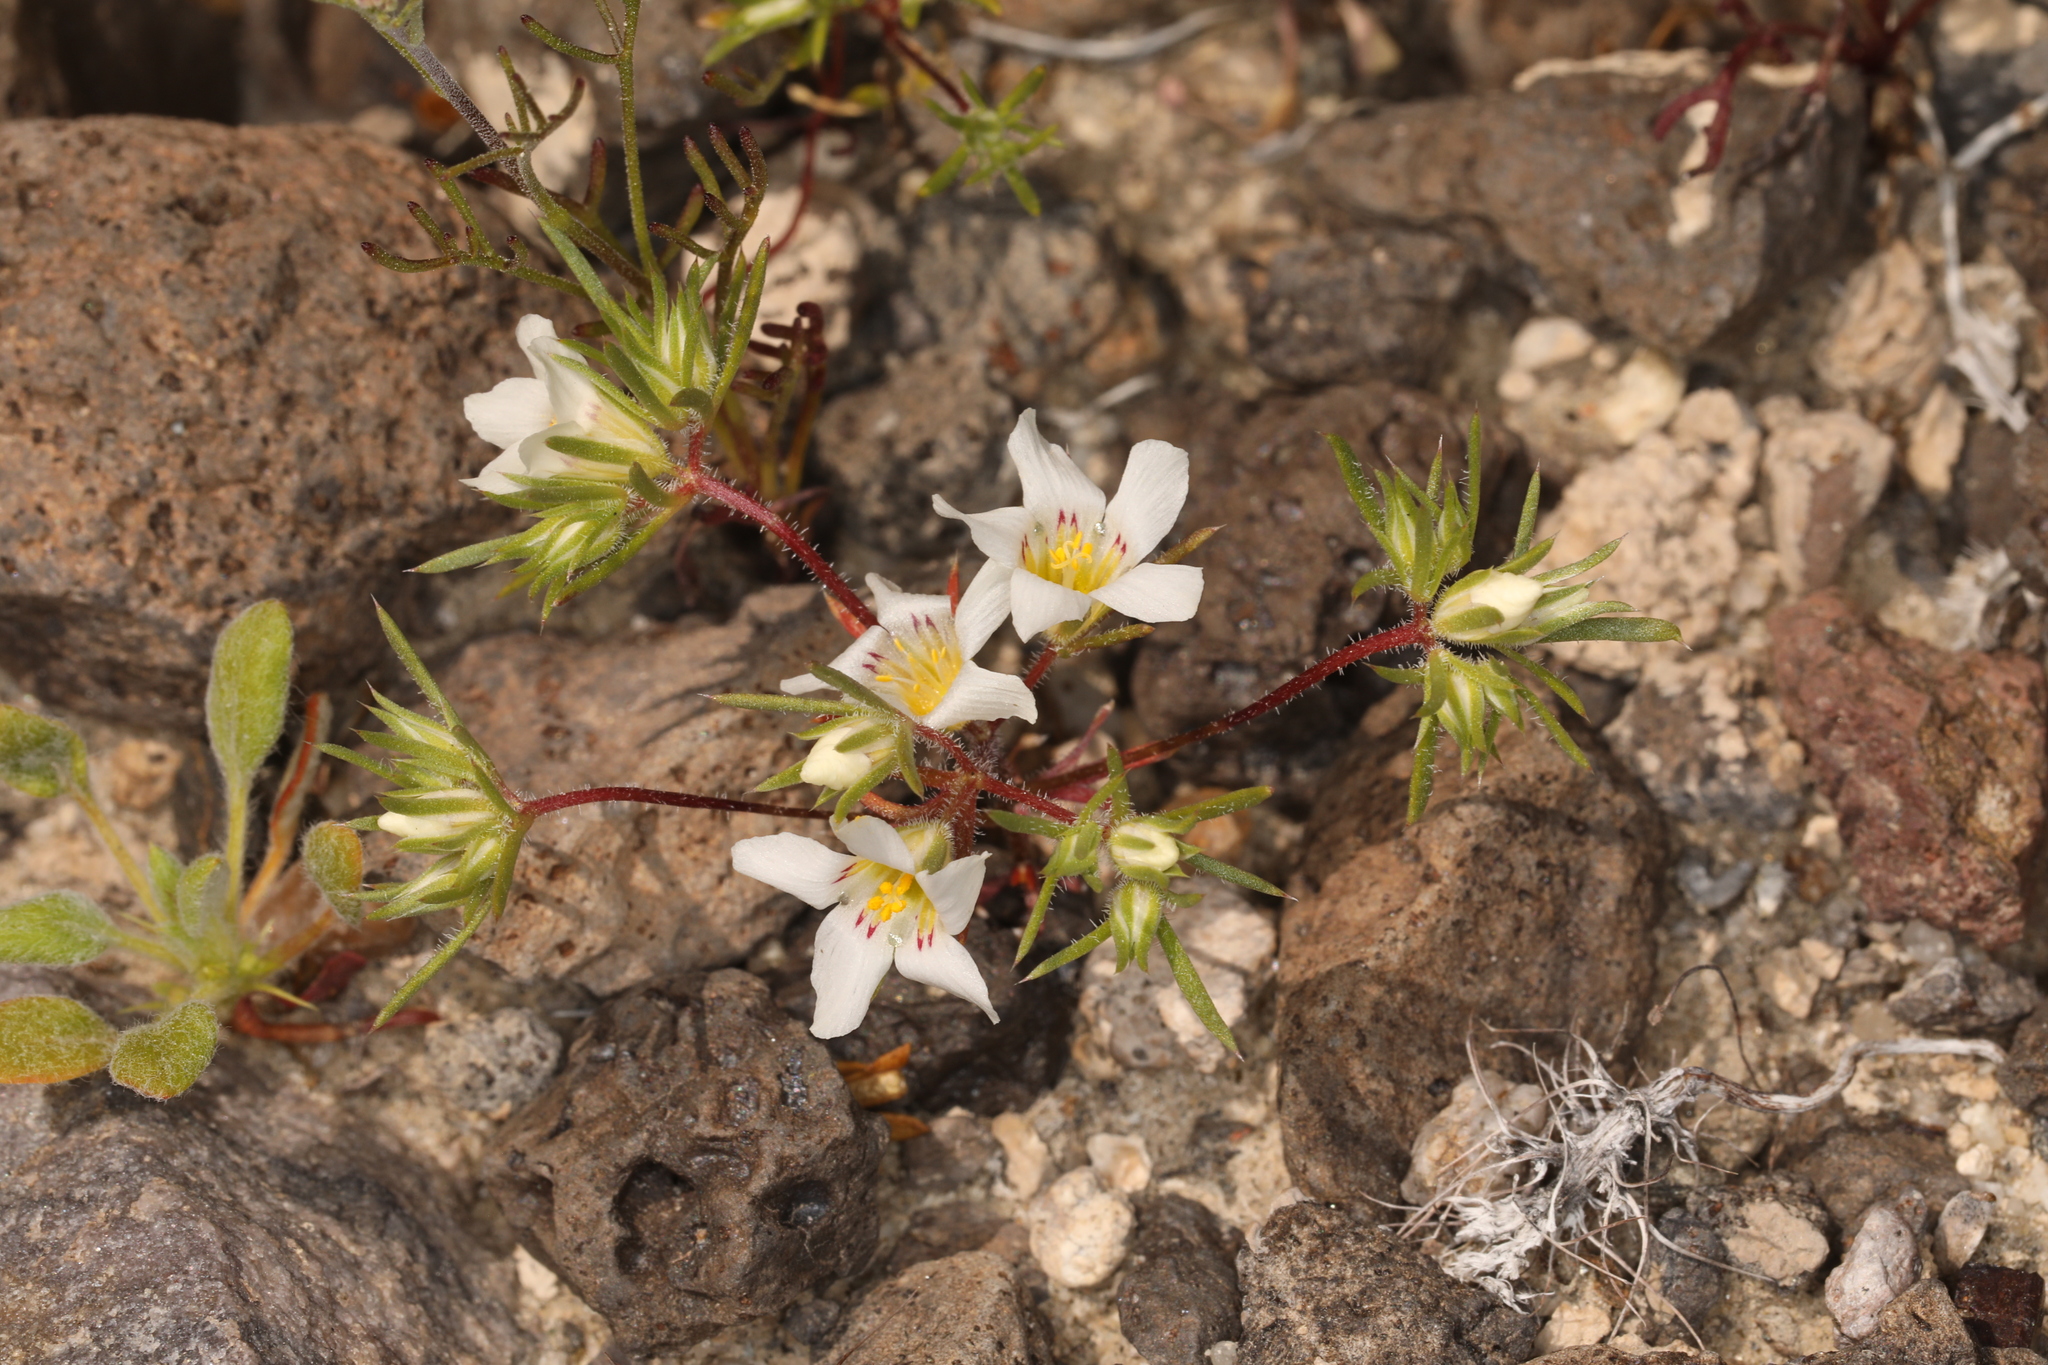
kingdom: Plantae
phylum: Tracheophyta
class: Magnoliopsida
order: Ericales
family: Polemoniaceae
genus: Linanthus
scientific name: Linanthus demissus
